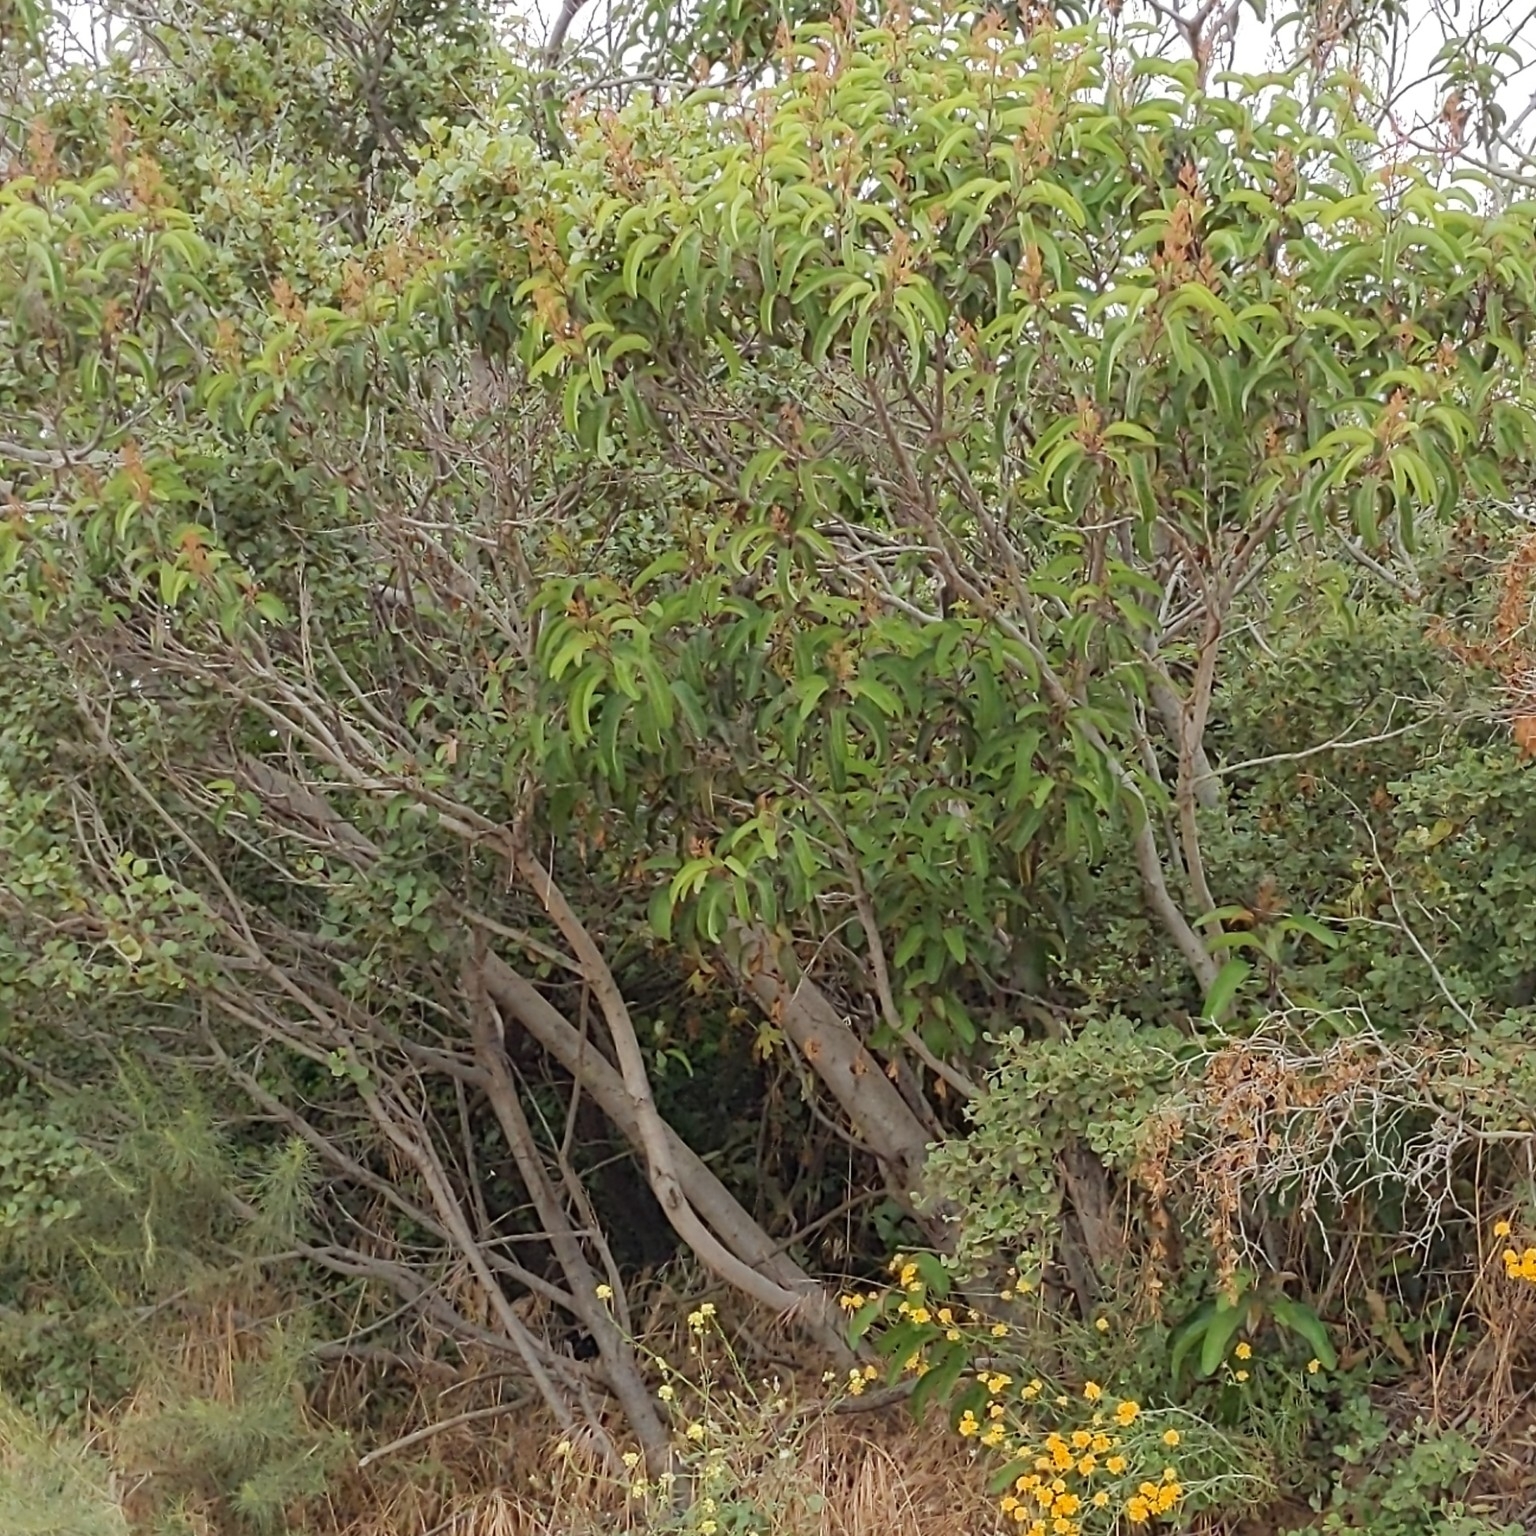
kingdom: Plantae
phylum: Tracheophyta
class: Magnoliopsida
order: Sapindales
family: Anacardiaceae
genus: Malosma
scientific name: Malosma laurina
